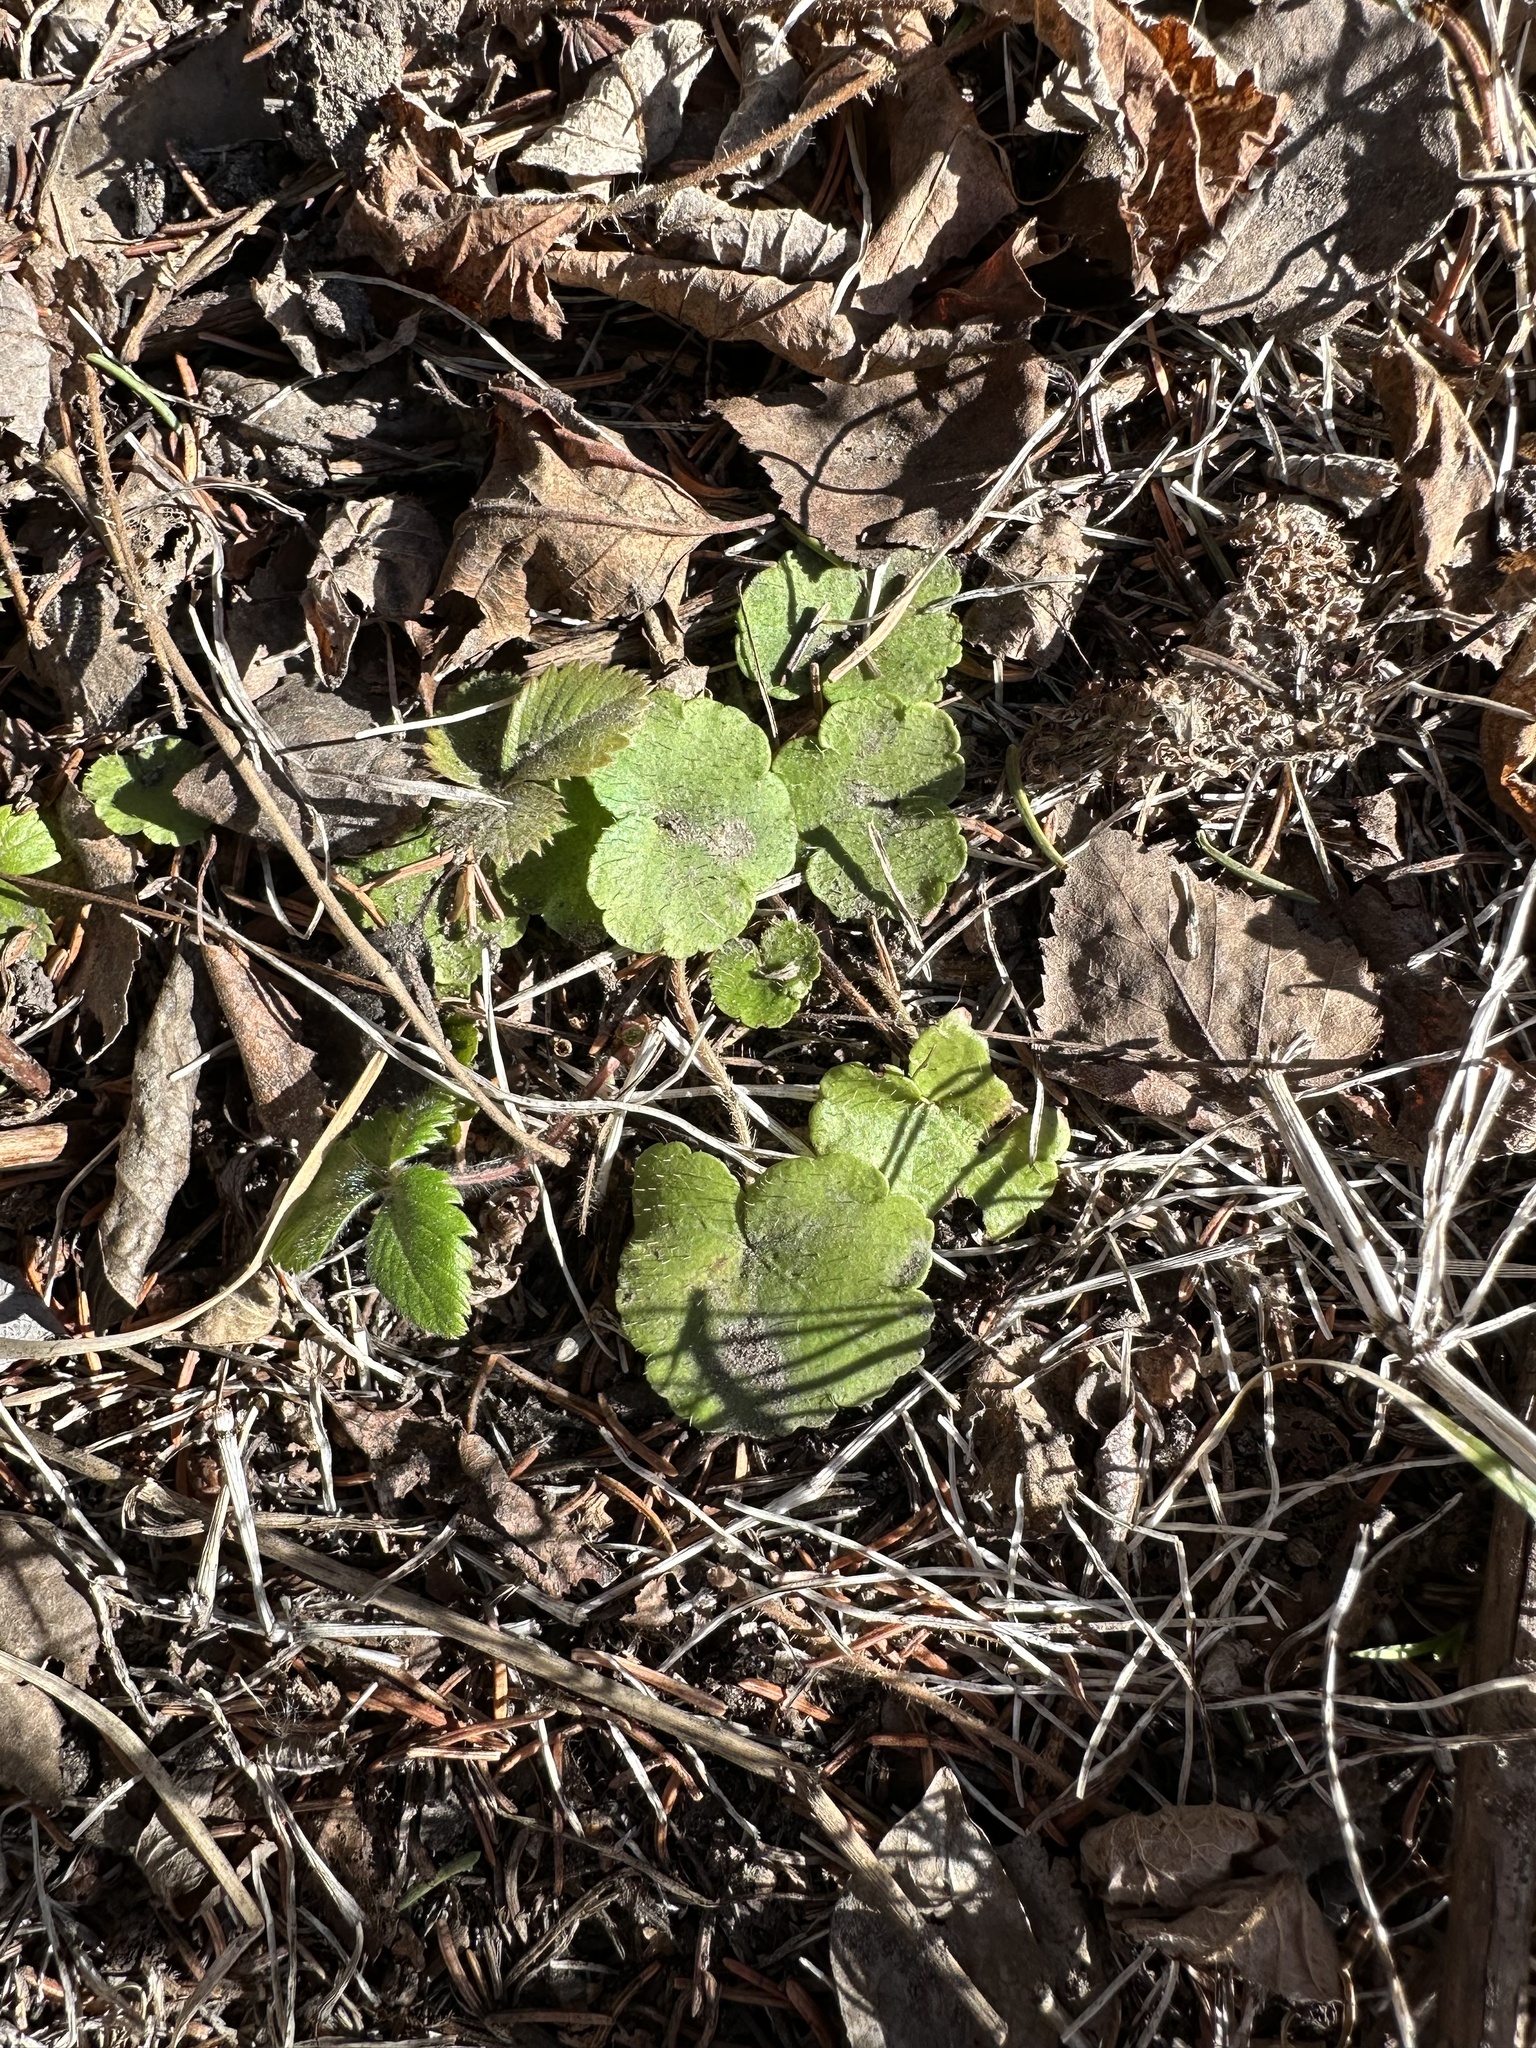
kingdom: Plantae
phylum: Tracheophyta
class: Magnoliopsida
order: Saxifragales
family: Saxifragaceae
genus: Mitella
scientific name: Mitella nuda
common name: Bare-stemmed bishop's-cap
